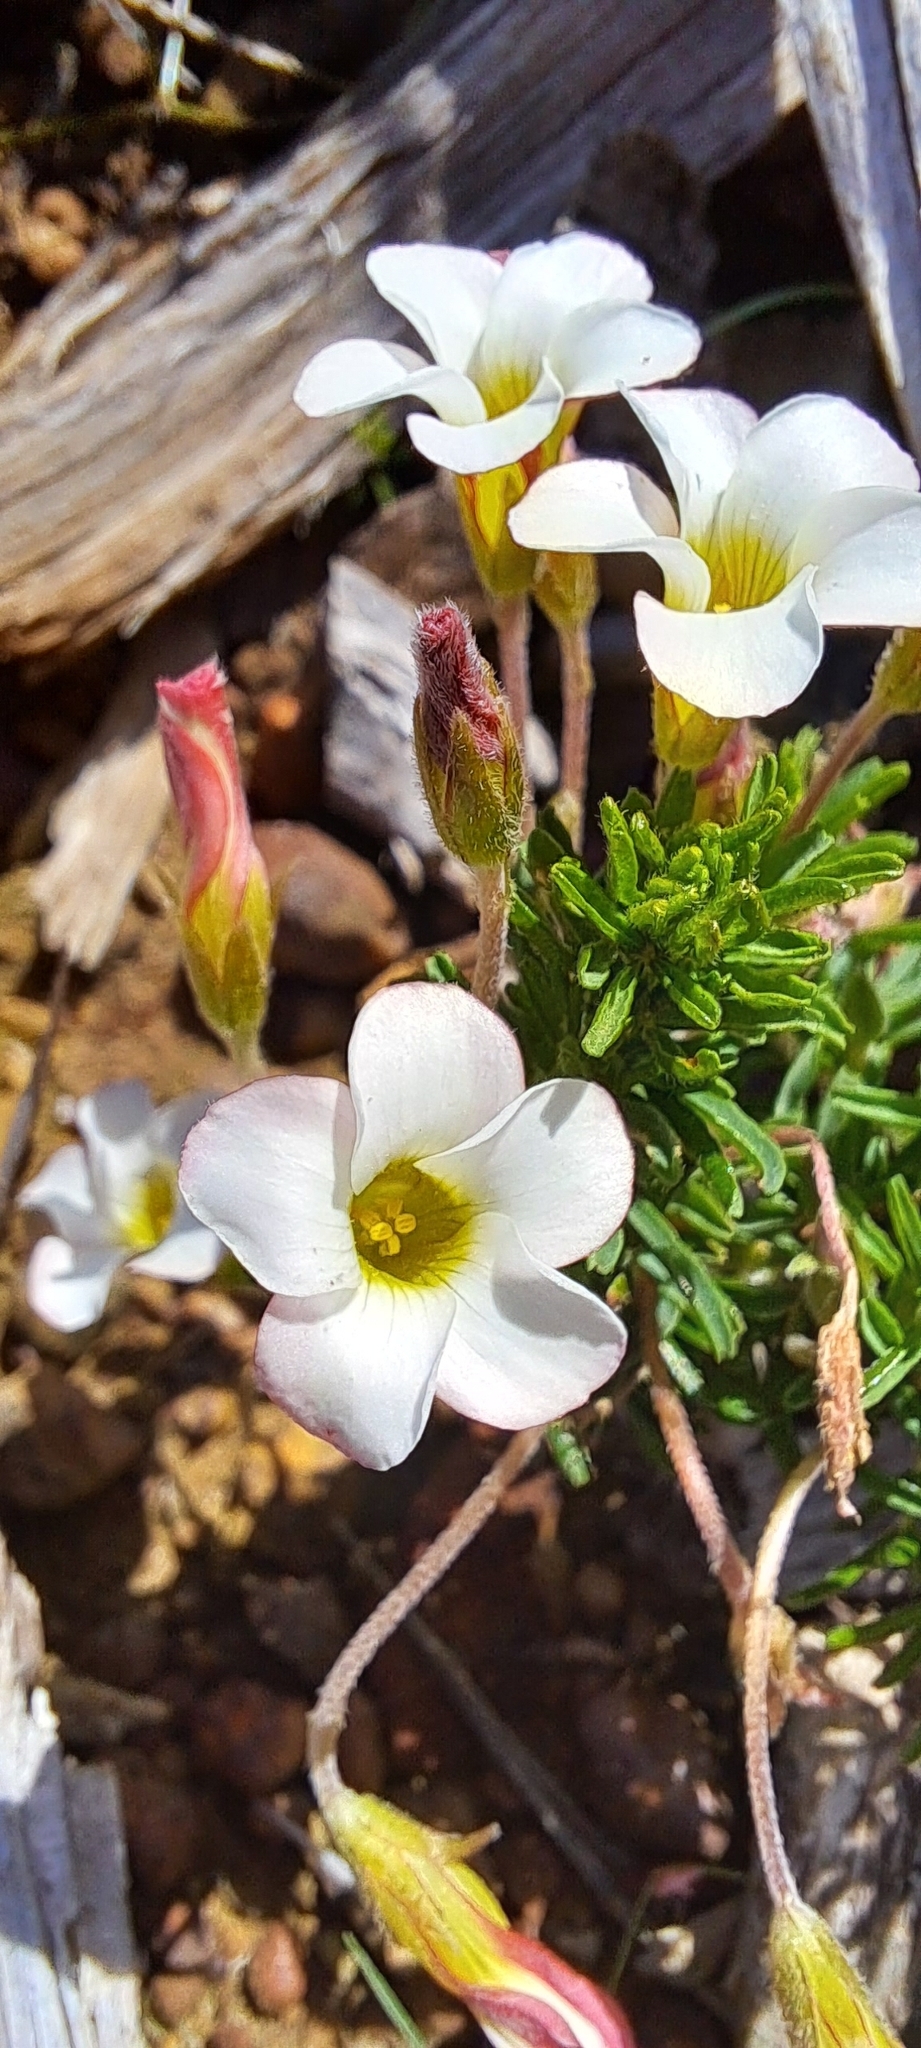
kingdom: Plantae
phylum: Tracheophyta
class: Magnoliopsida
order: Oxalidales
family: Oxalidaceae
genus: Oxalis
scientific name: Oxalis tenuifolia
